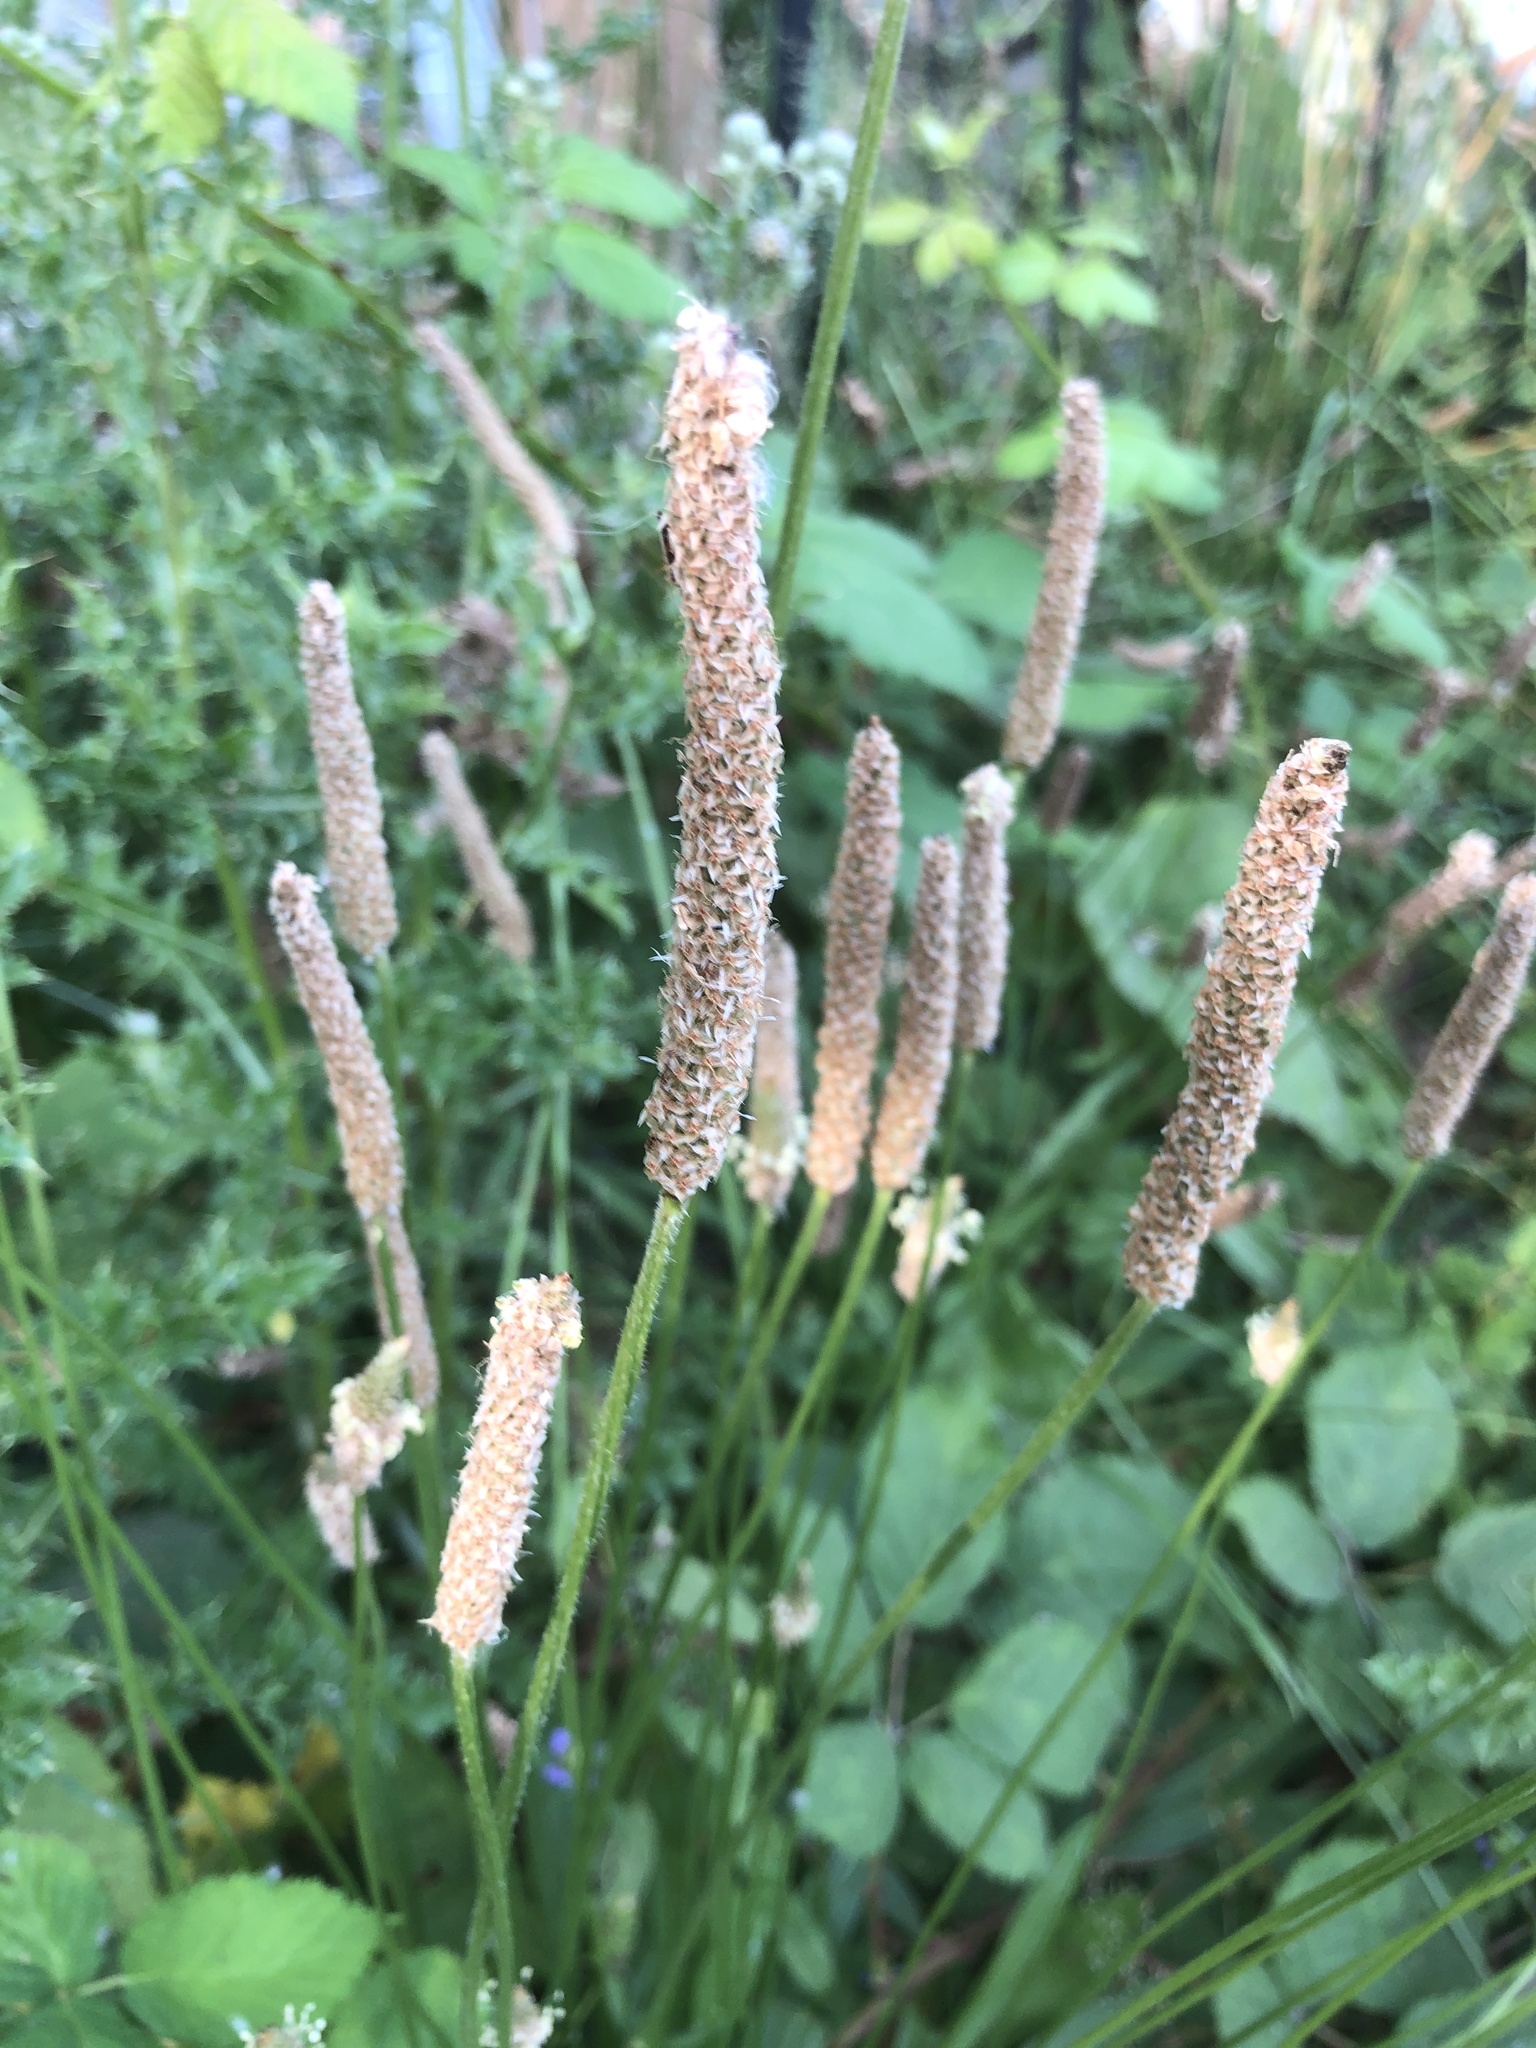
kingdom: Plantae
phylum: Tracheophyta
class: Magnoliopsida
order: Lamiales
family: Plantaginaceae
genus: Plantago
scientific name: Plantago lanceolata
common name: Ribwort plantain
